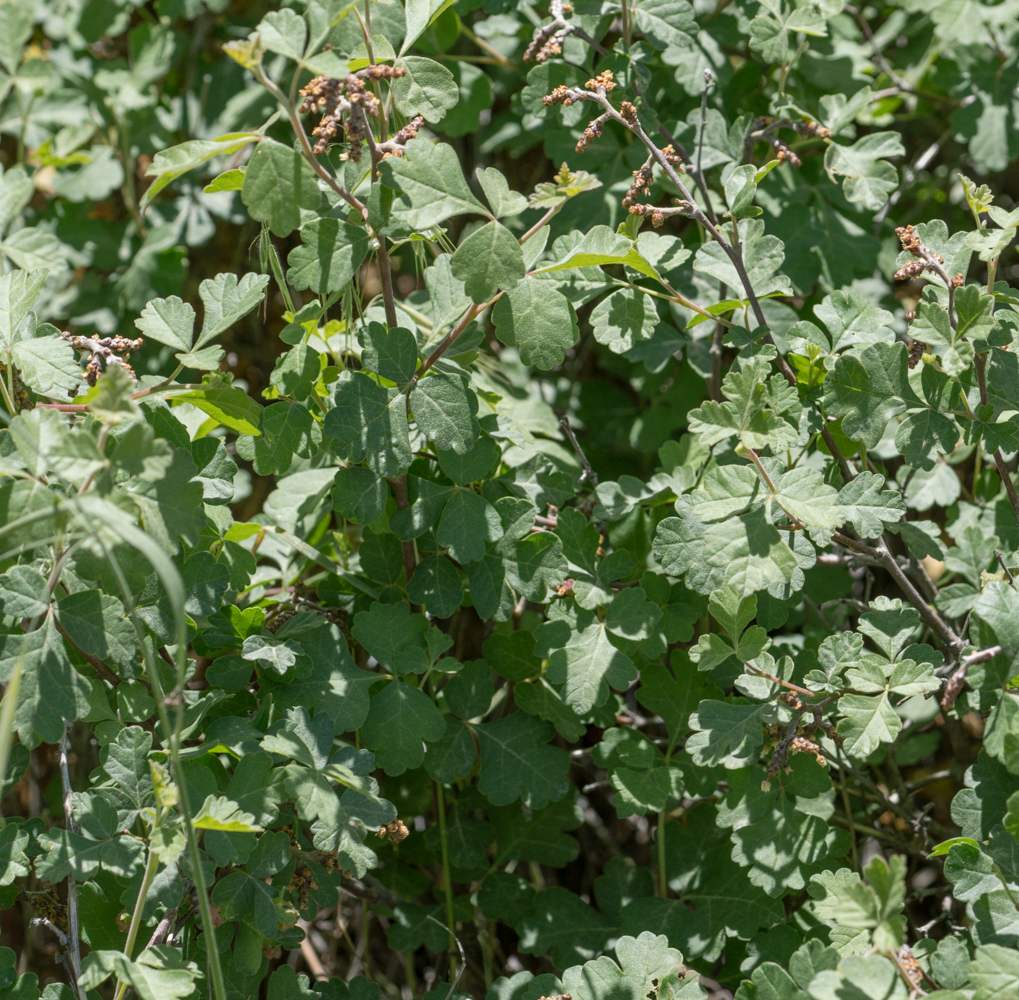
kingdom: Plantae
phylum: Tracheophyta
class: Magnoliopsida
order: Sapindales
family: Anacardiaceae
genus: Rhus
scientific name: Rhus aromatica
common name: Aromatic sumac
